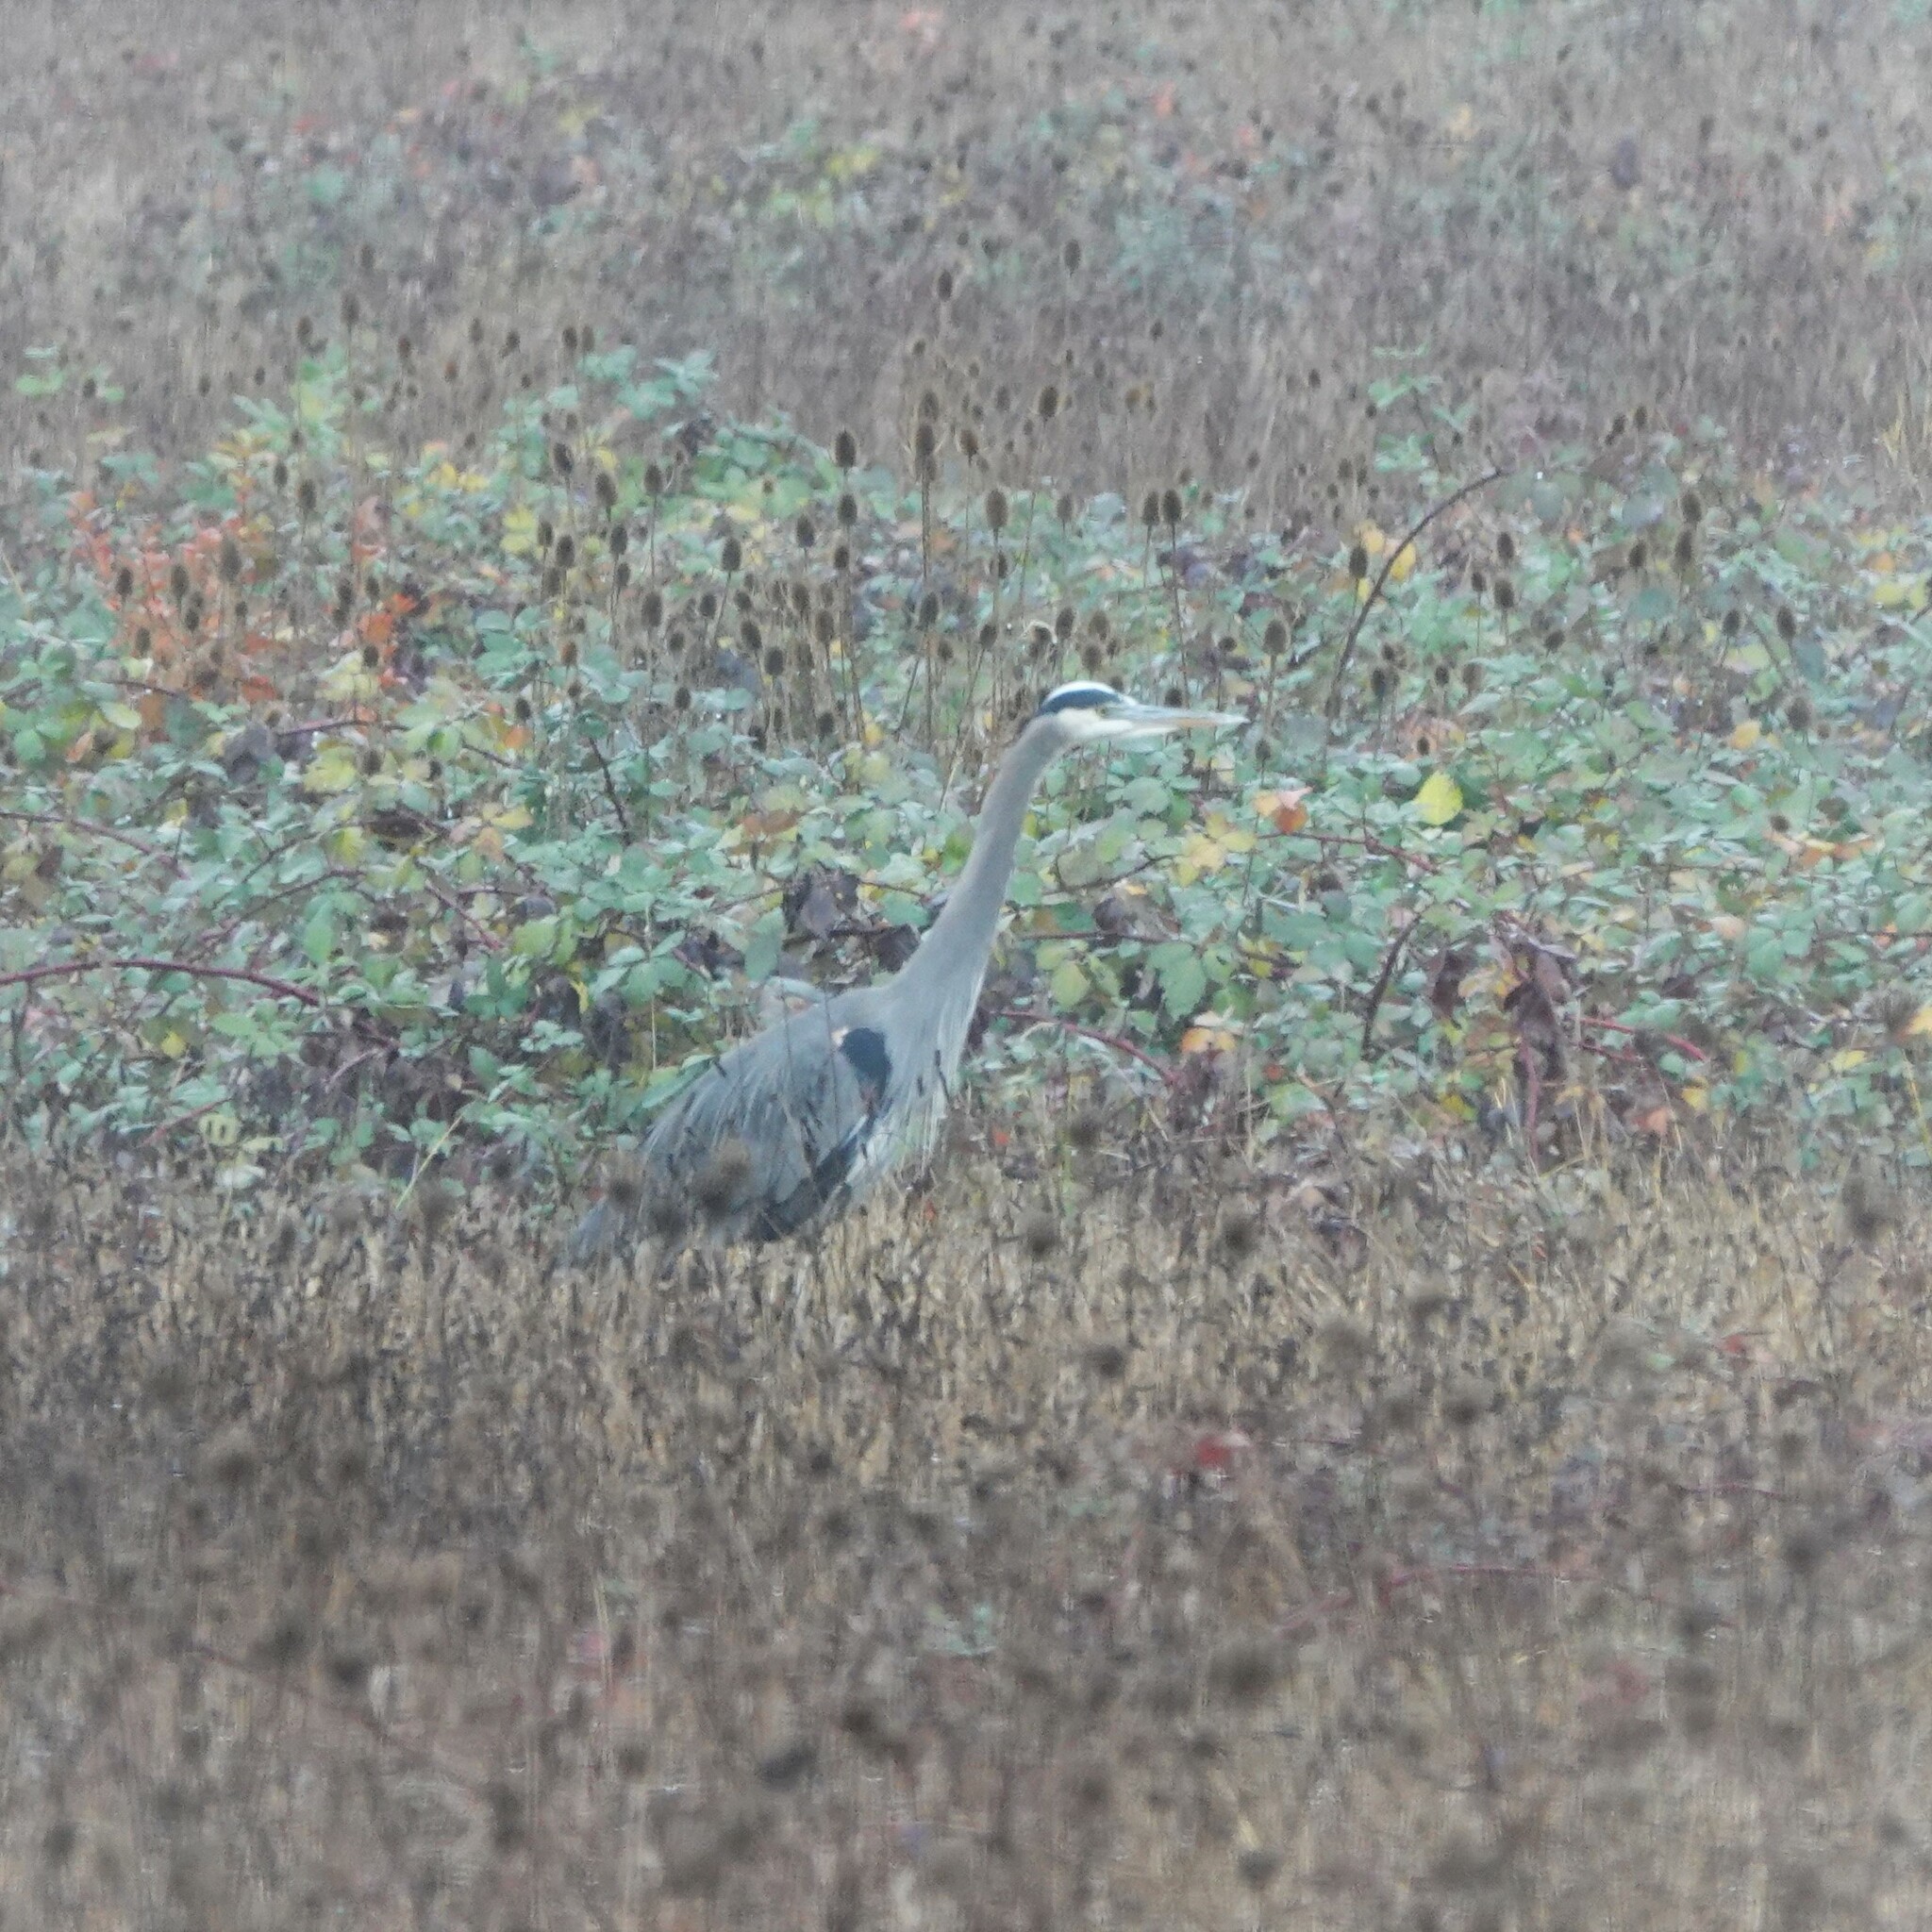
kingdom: Animalia
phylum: Chordata
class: Aves
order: Pelecaniformes
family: Ardeidae
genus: Ardea
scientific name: Ardea herodias
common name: Great blue heron
